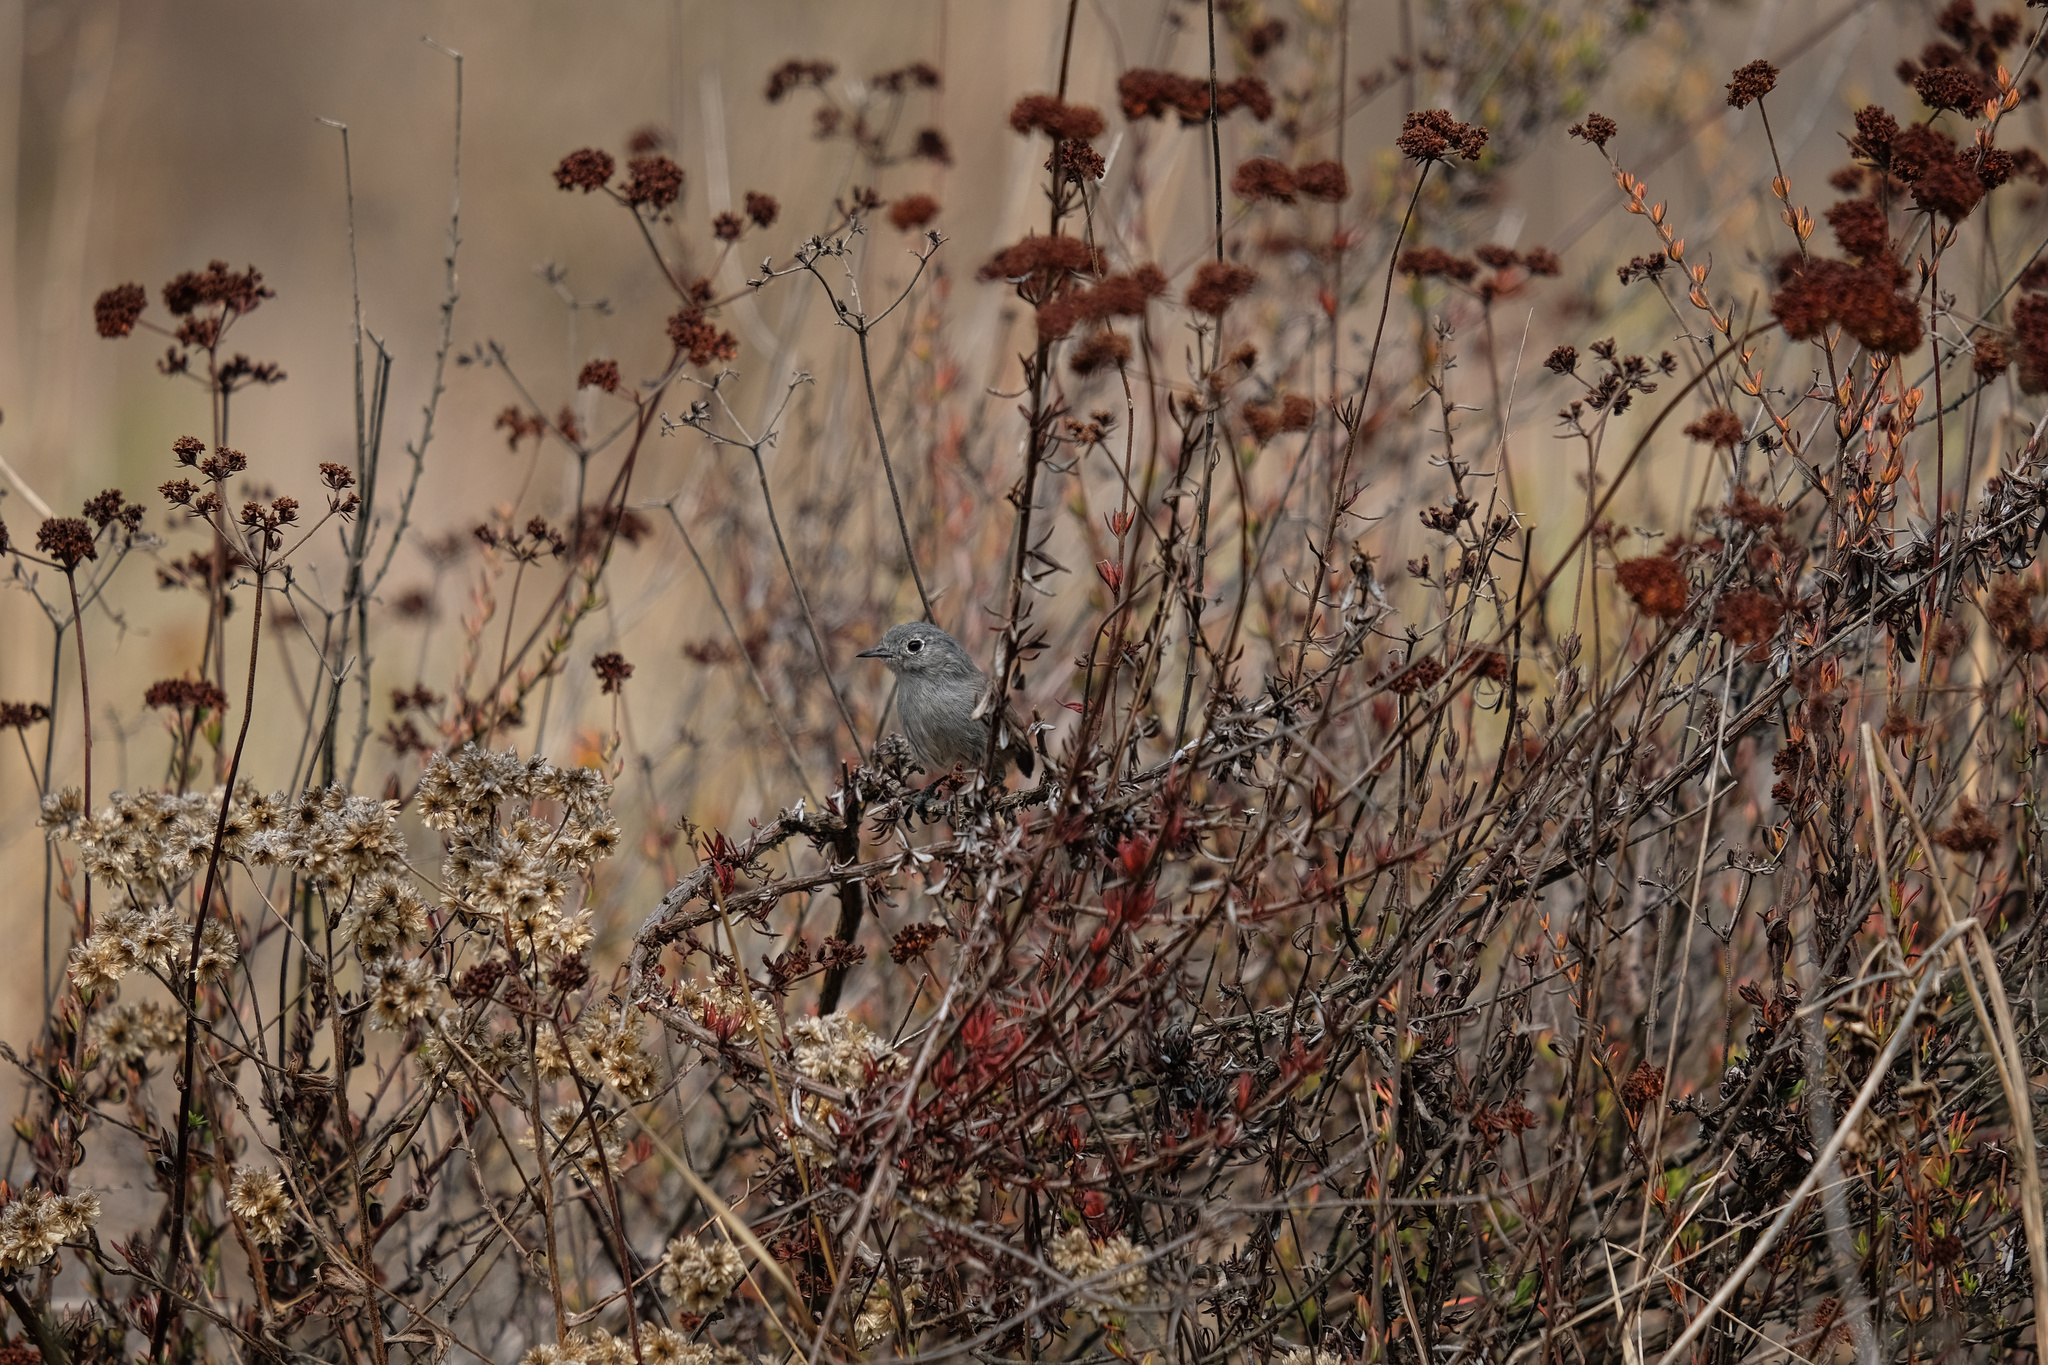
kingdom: Animalia
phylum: Chordata
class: Aves
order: Passeriformes
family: Polioptilidae
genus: Polioptila
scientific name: Polioptila californica
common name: California gnatcatcher
